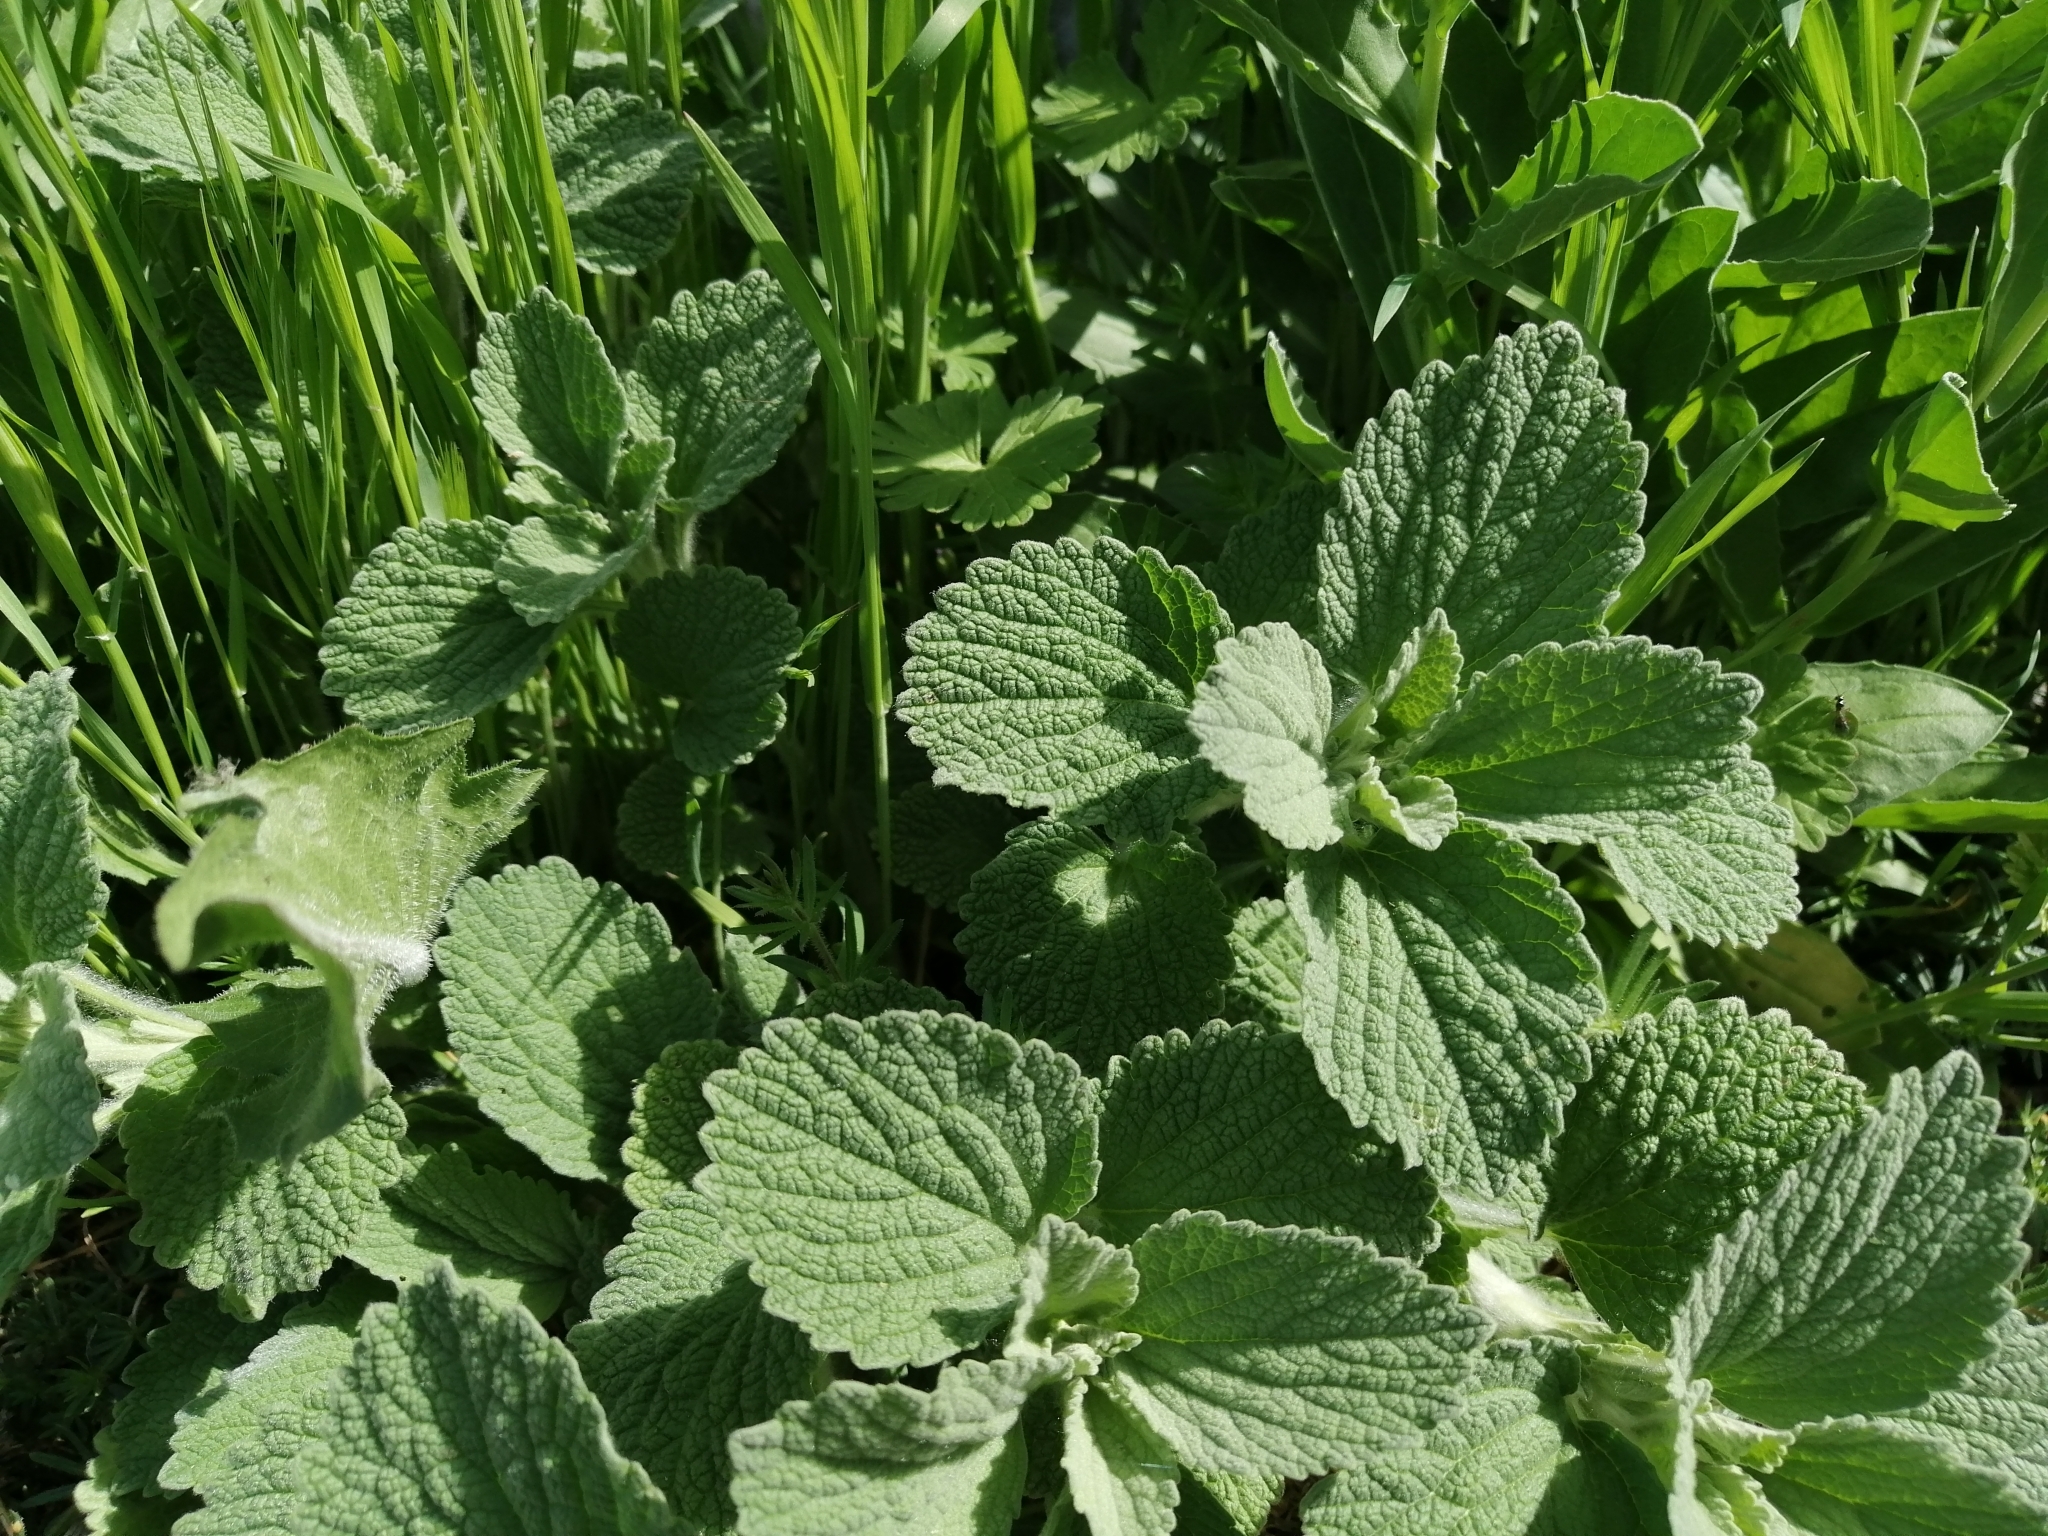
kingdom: Plantae
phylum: Tracheophyta
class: Magnoliopsida
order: Lamiales
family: Lamiaceae
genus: Marrubium
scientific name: Marrubium peregrinum
